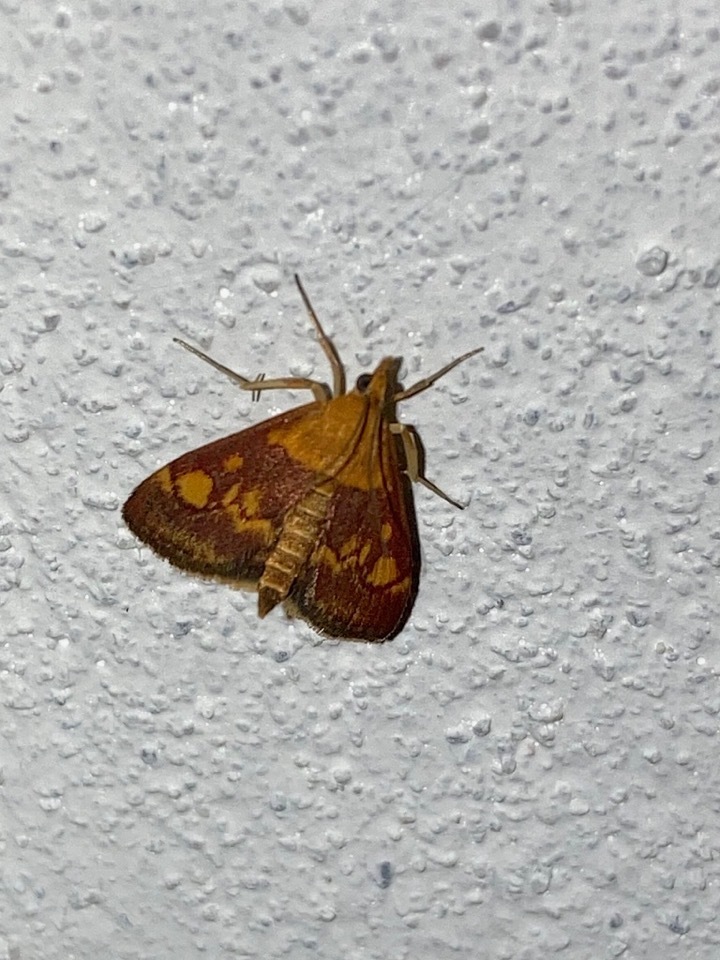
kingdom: Animalia
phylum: Arthropoda
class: Insecta
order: Lepidoptera
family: Crambidae
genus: Pyrausta
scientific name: Pyrausta aurata
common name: Small purple & gold
